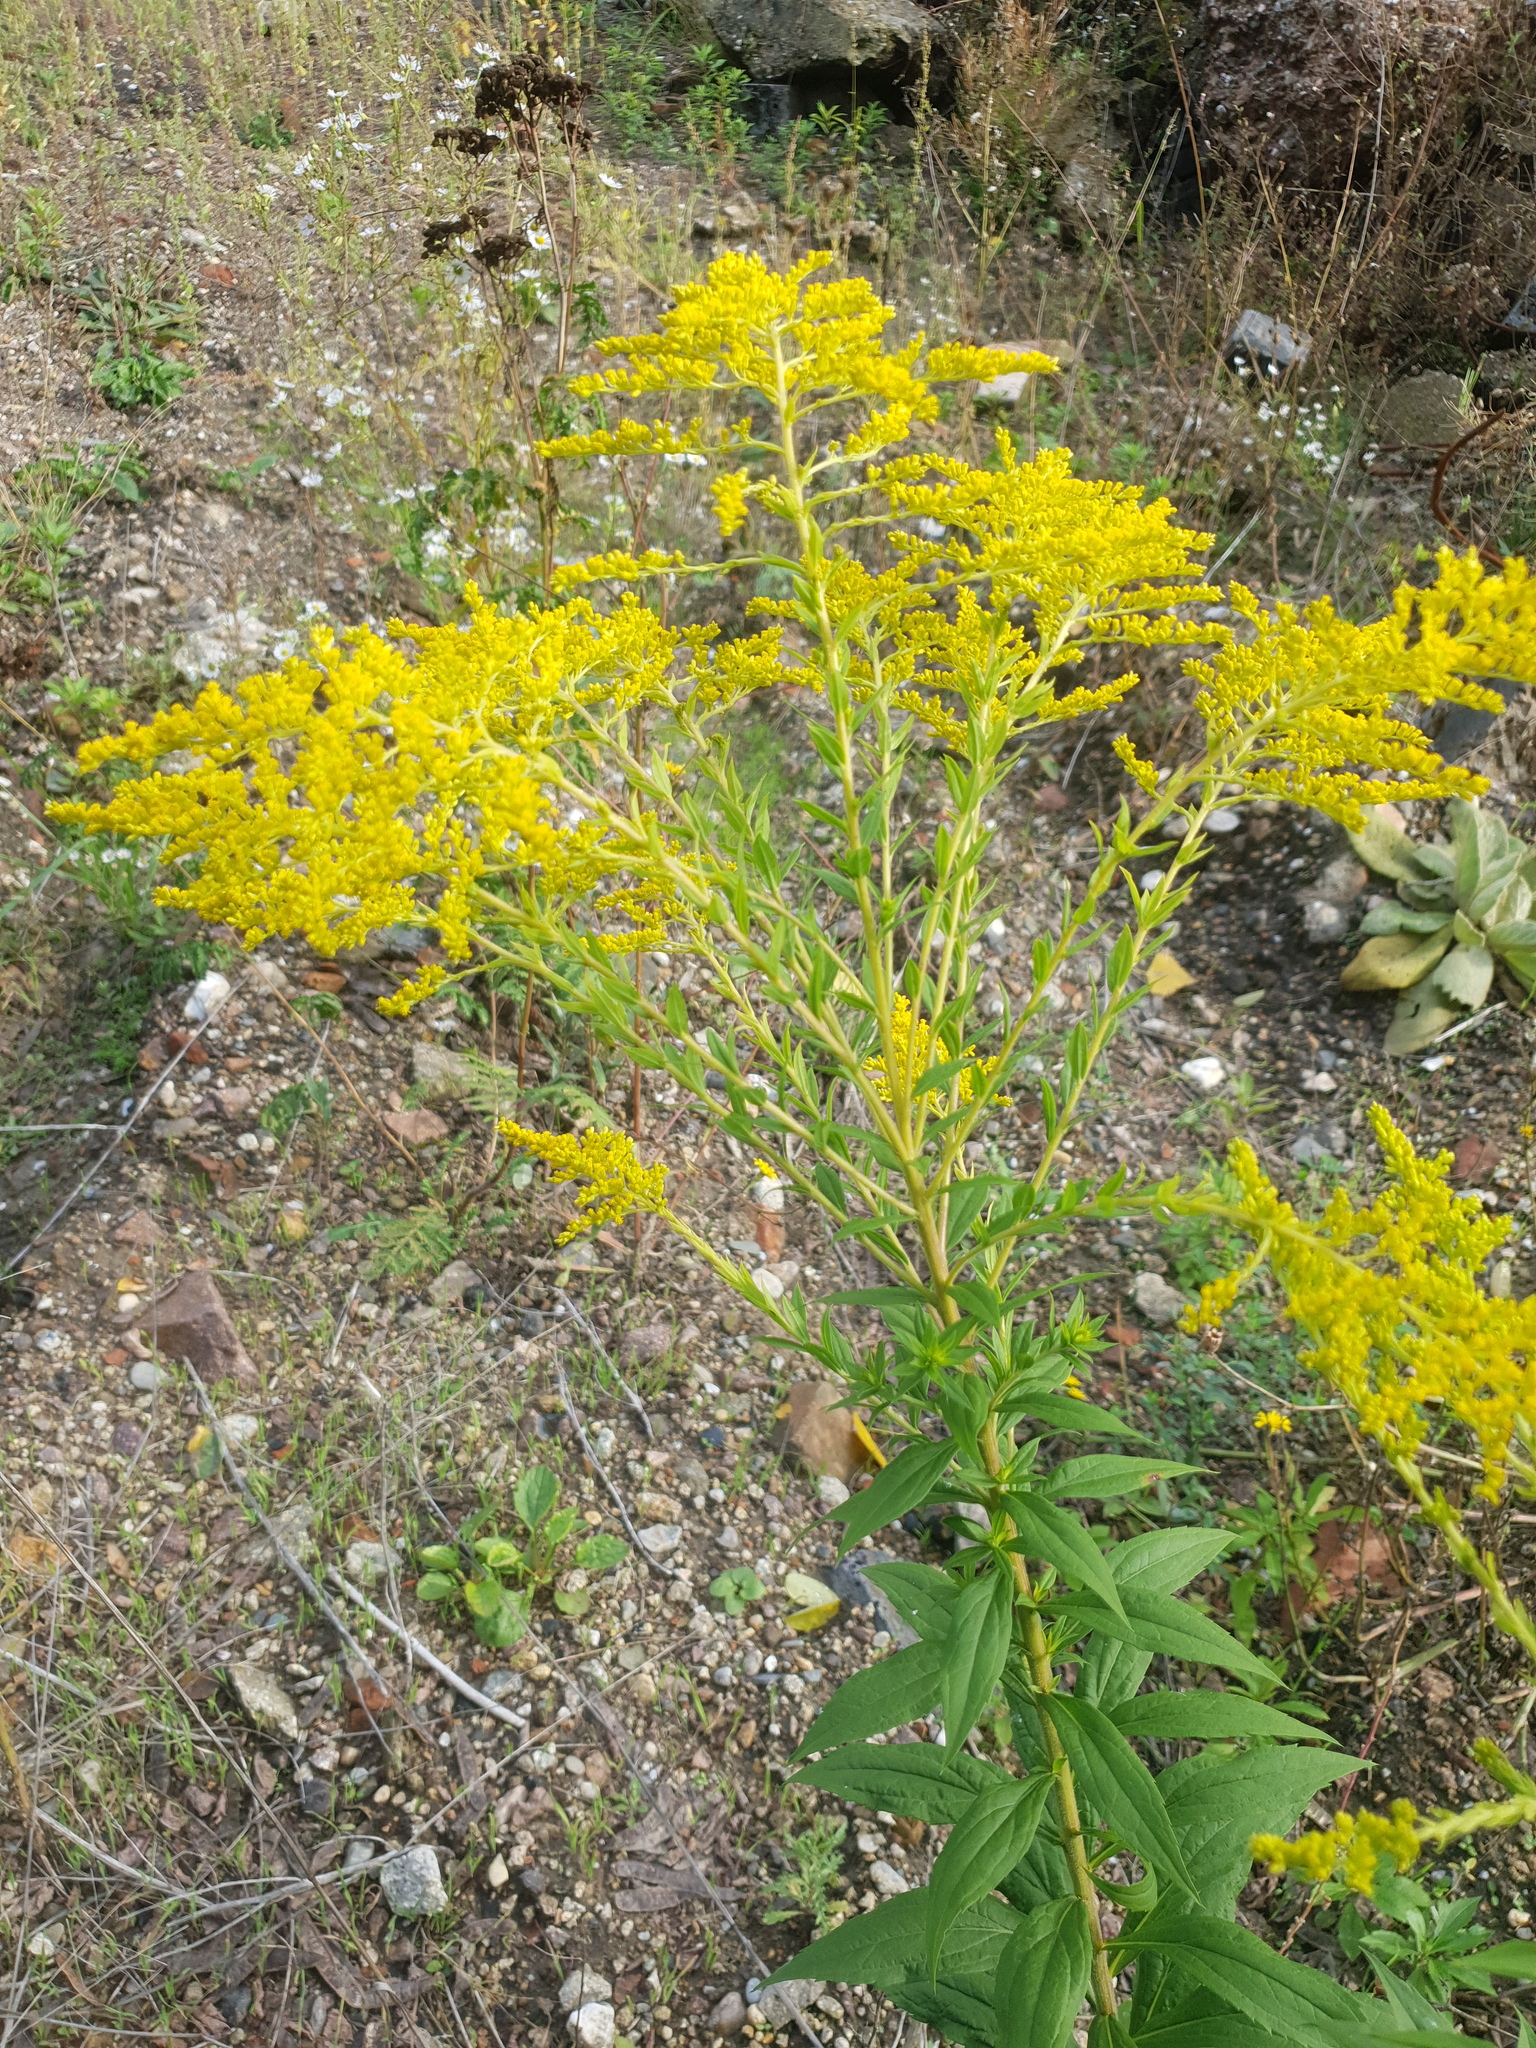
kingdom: Plantae
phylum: Tracheophyta
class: Magnoliopsida
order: Asterales
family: Asteraceae
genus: Solidago
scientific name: Solidago canadensis
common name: Canada goldenrod
